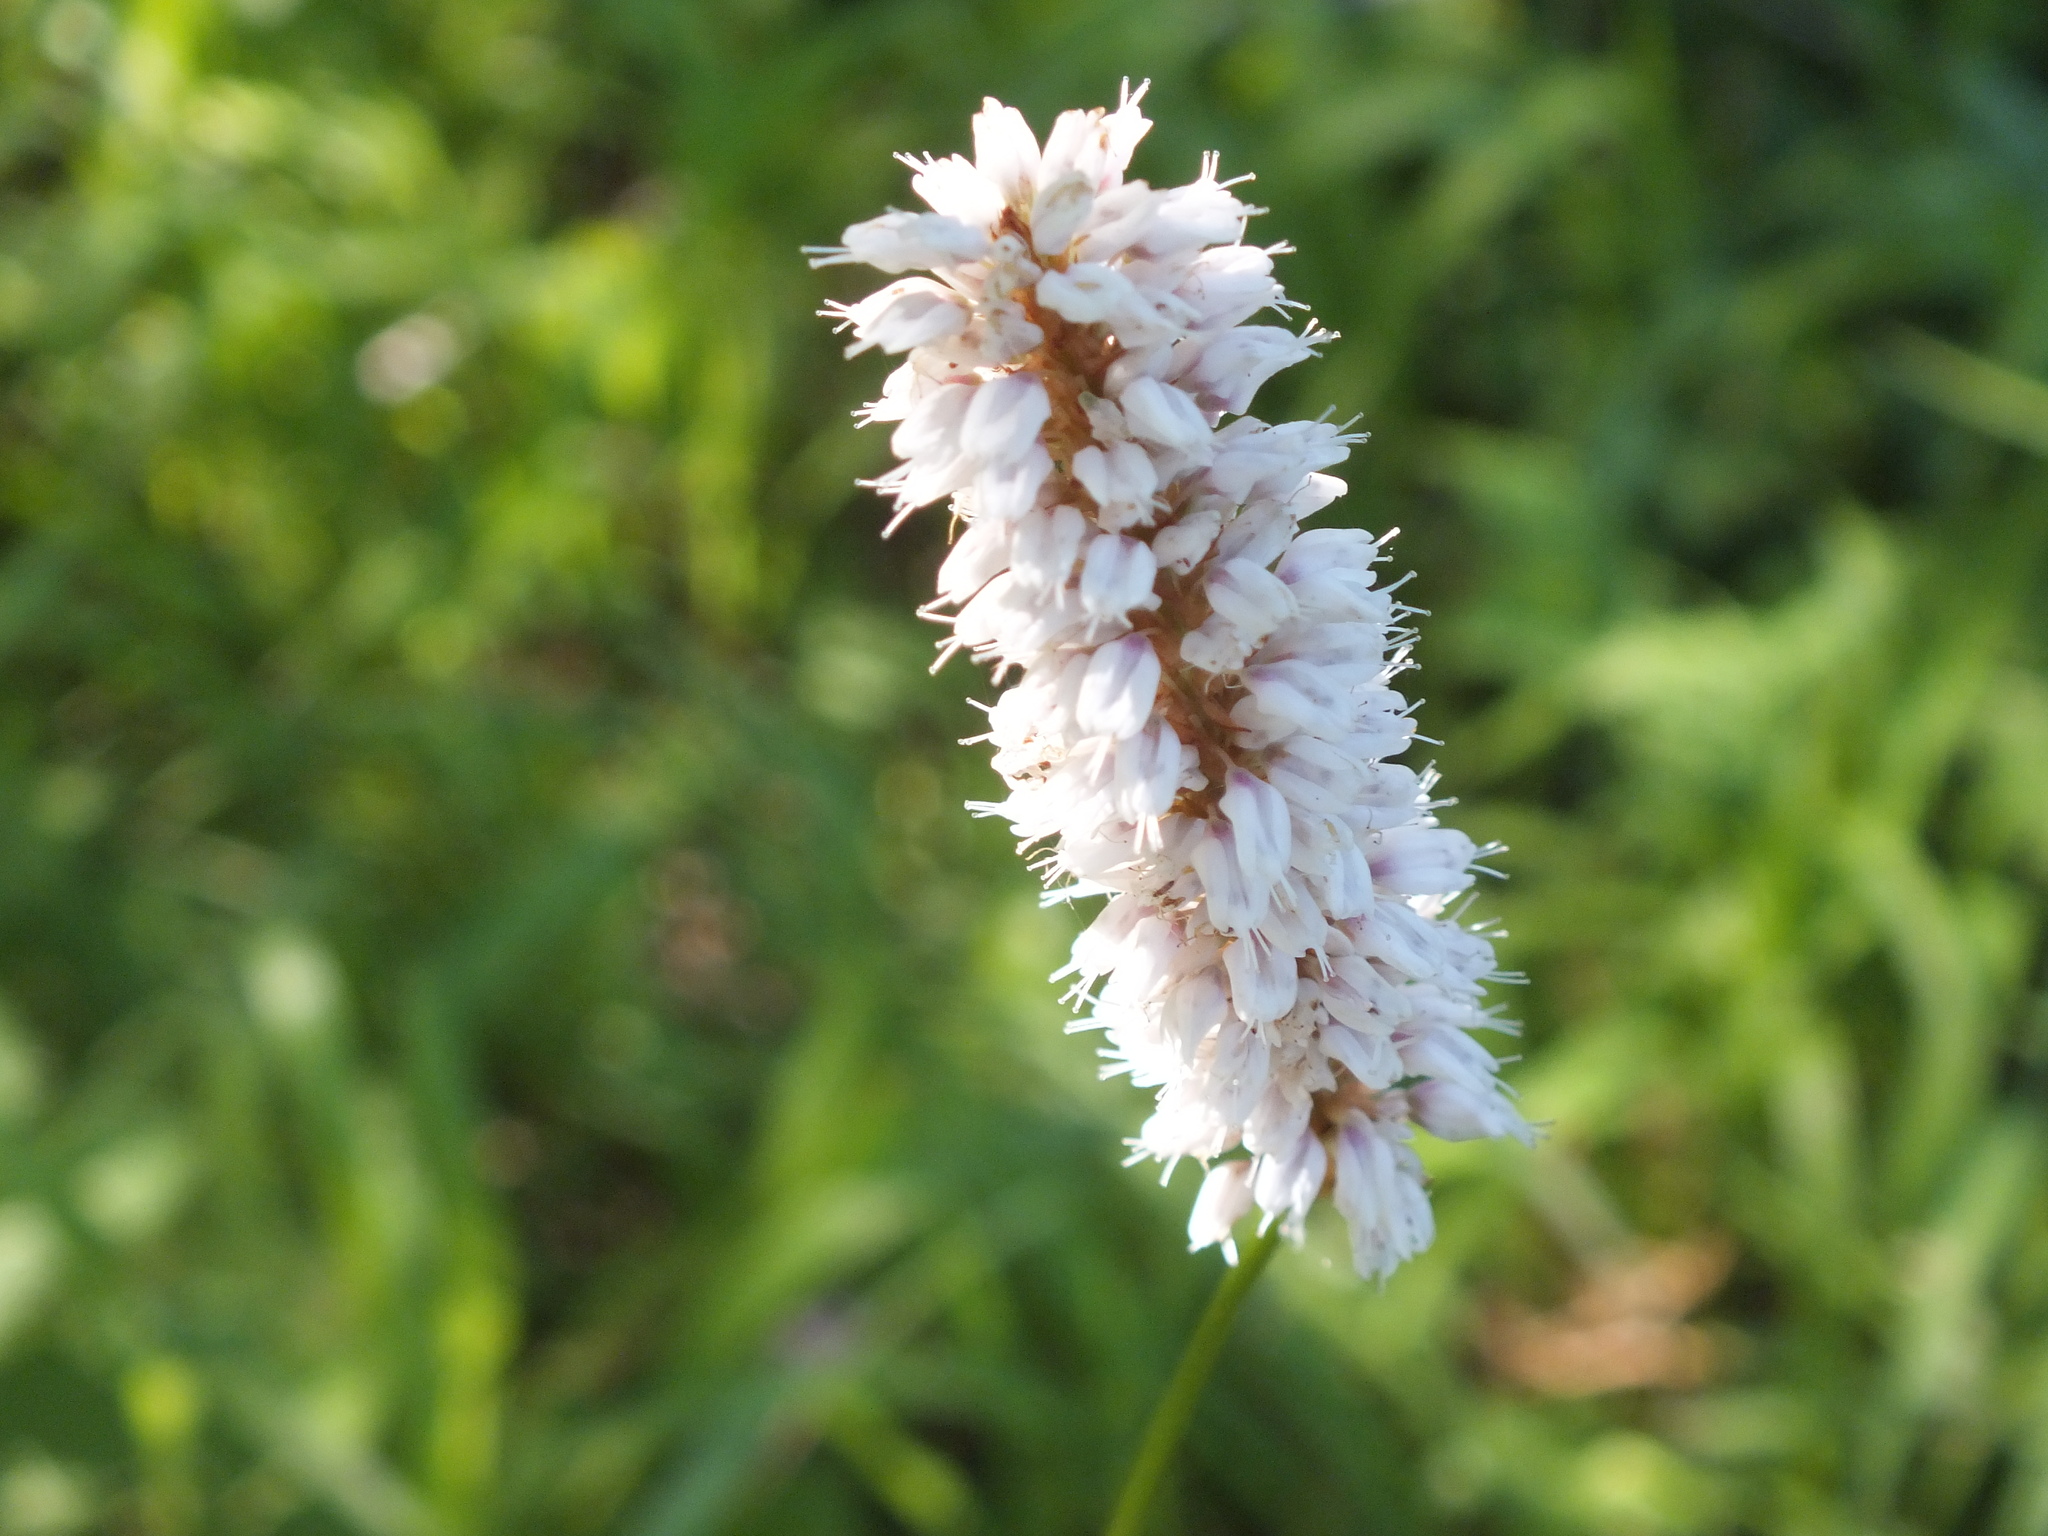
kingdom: Plantae
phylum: Tracheophyta
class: Magnoliopsida
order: Caryophyllales
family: Polygonaceae
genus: Bistorta
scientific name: Bistorta officinalis
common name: Common bistort
